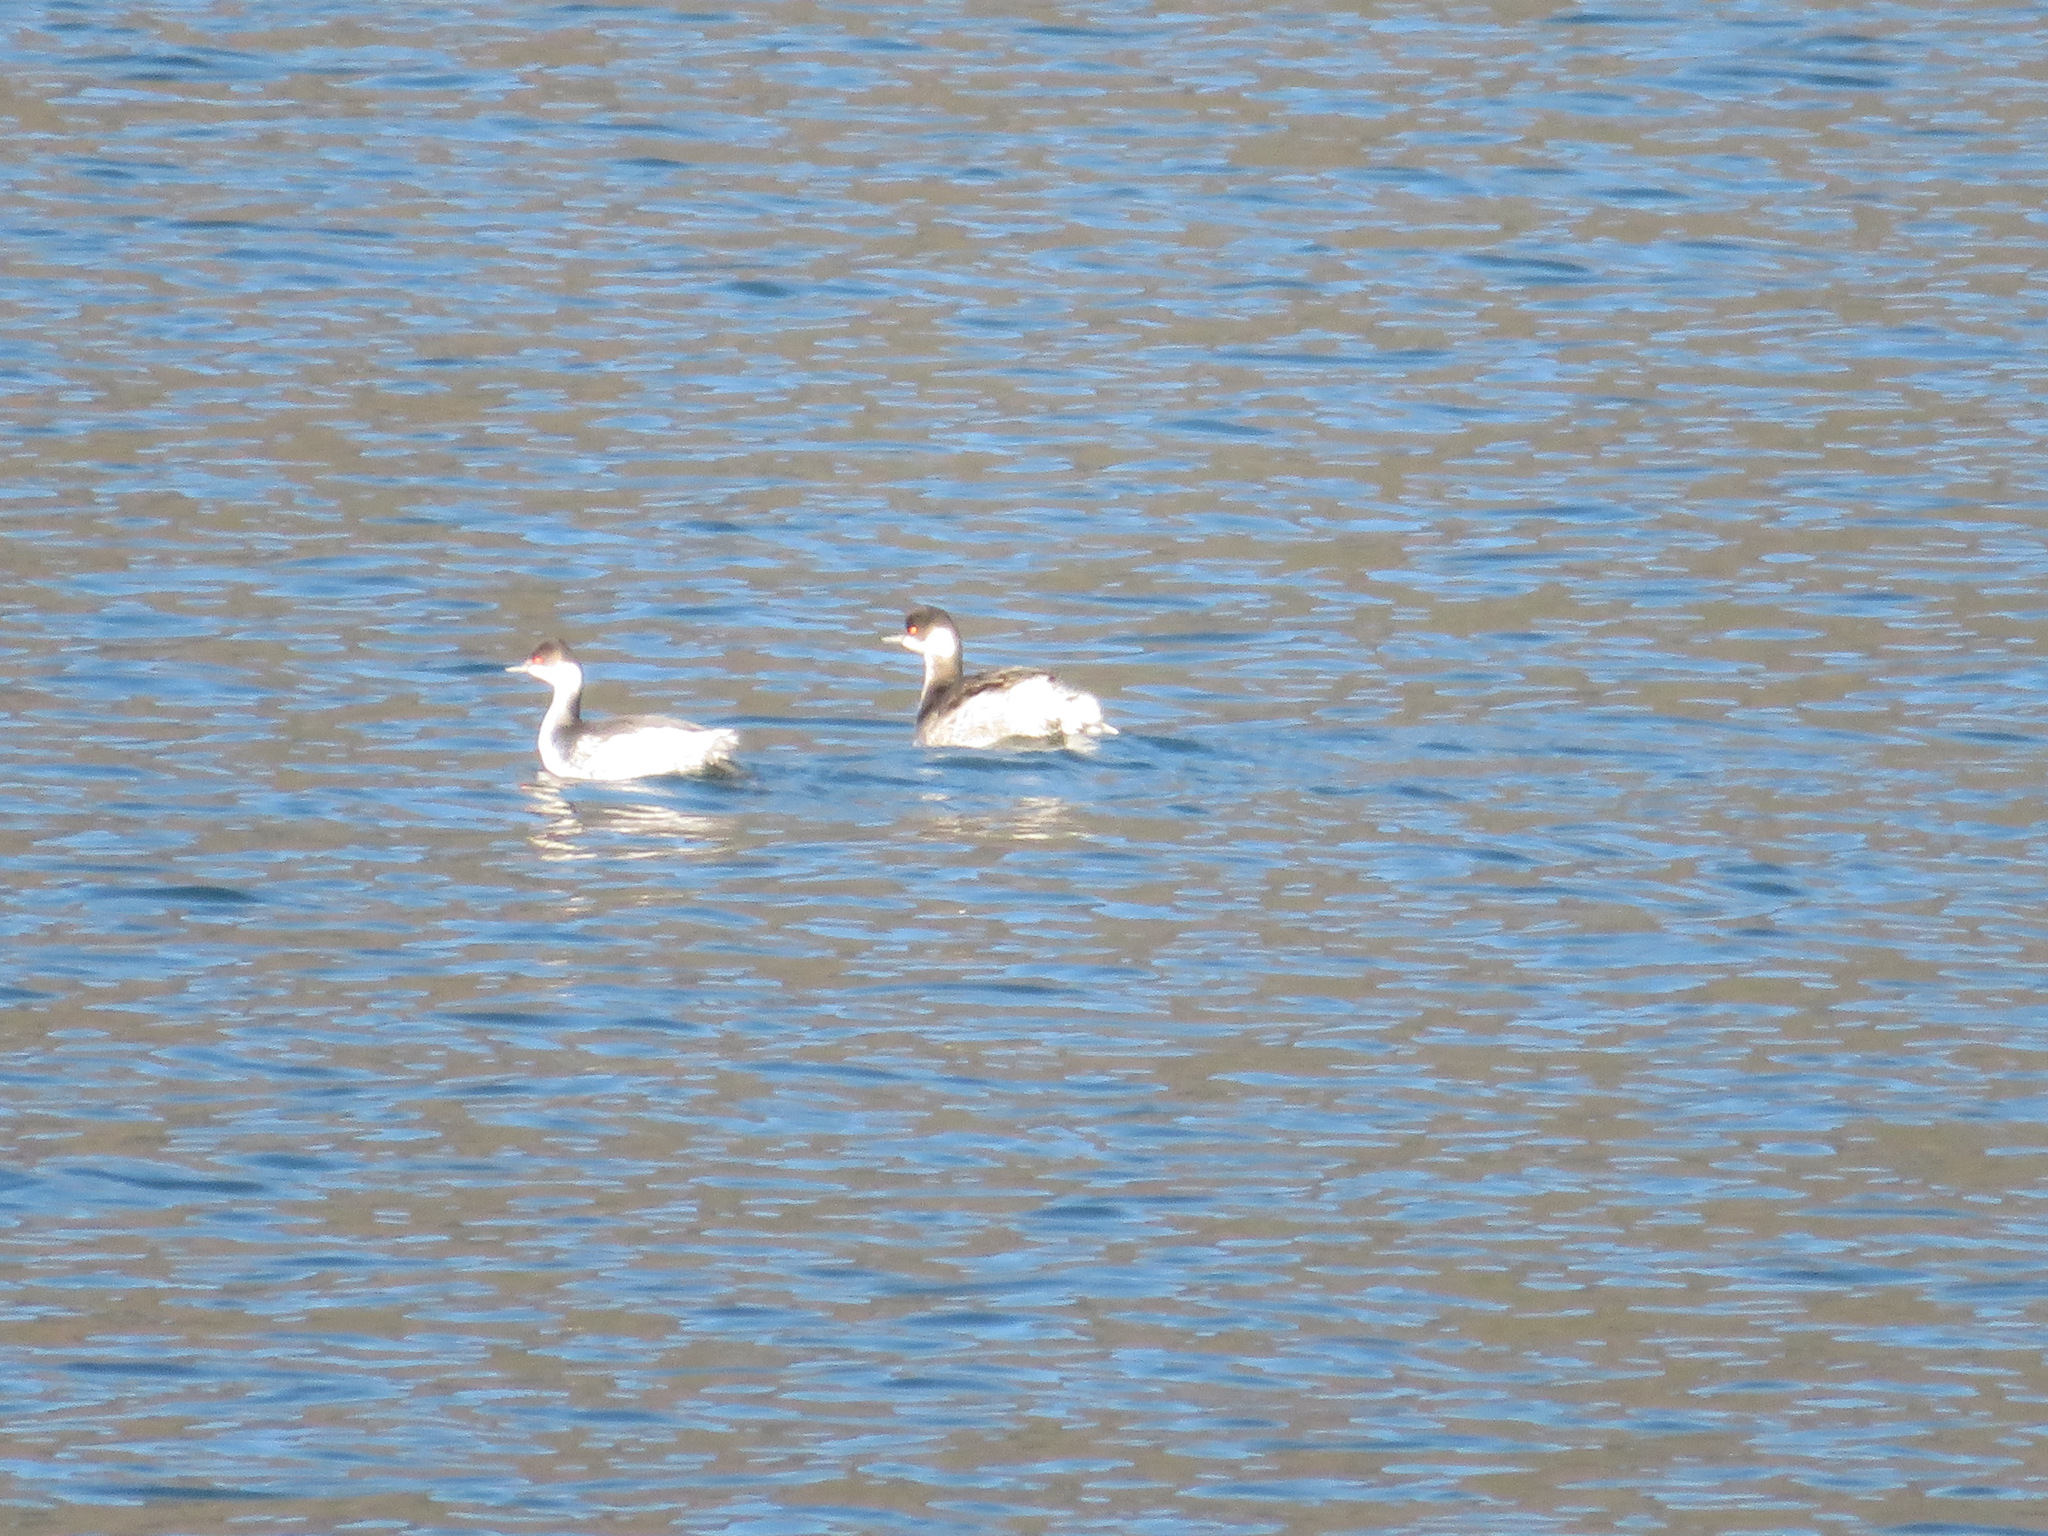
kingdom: Animalia
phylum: Chordata
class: Aves
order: Podicipediformes
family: Podicipedidae
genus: Podiceps
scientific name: Podiceps nigricollis
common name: Black-necked grebe
